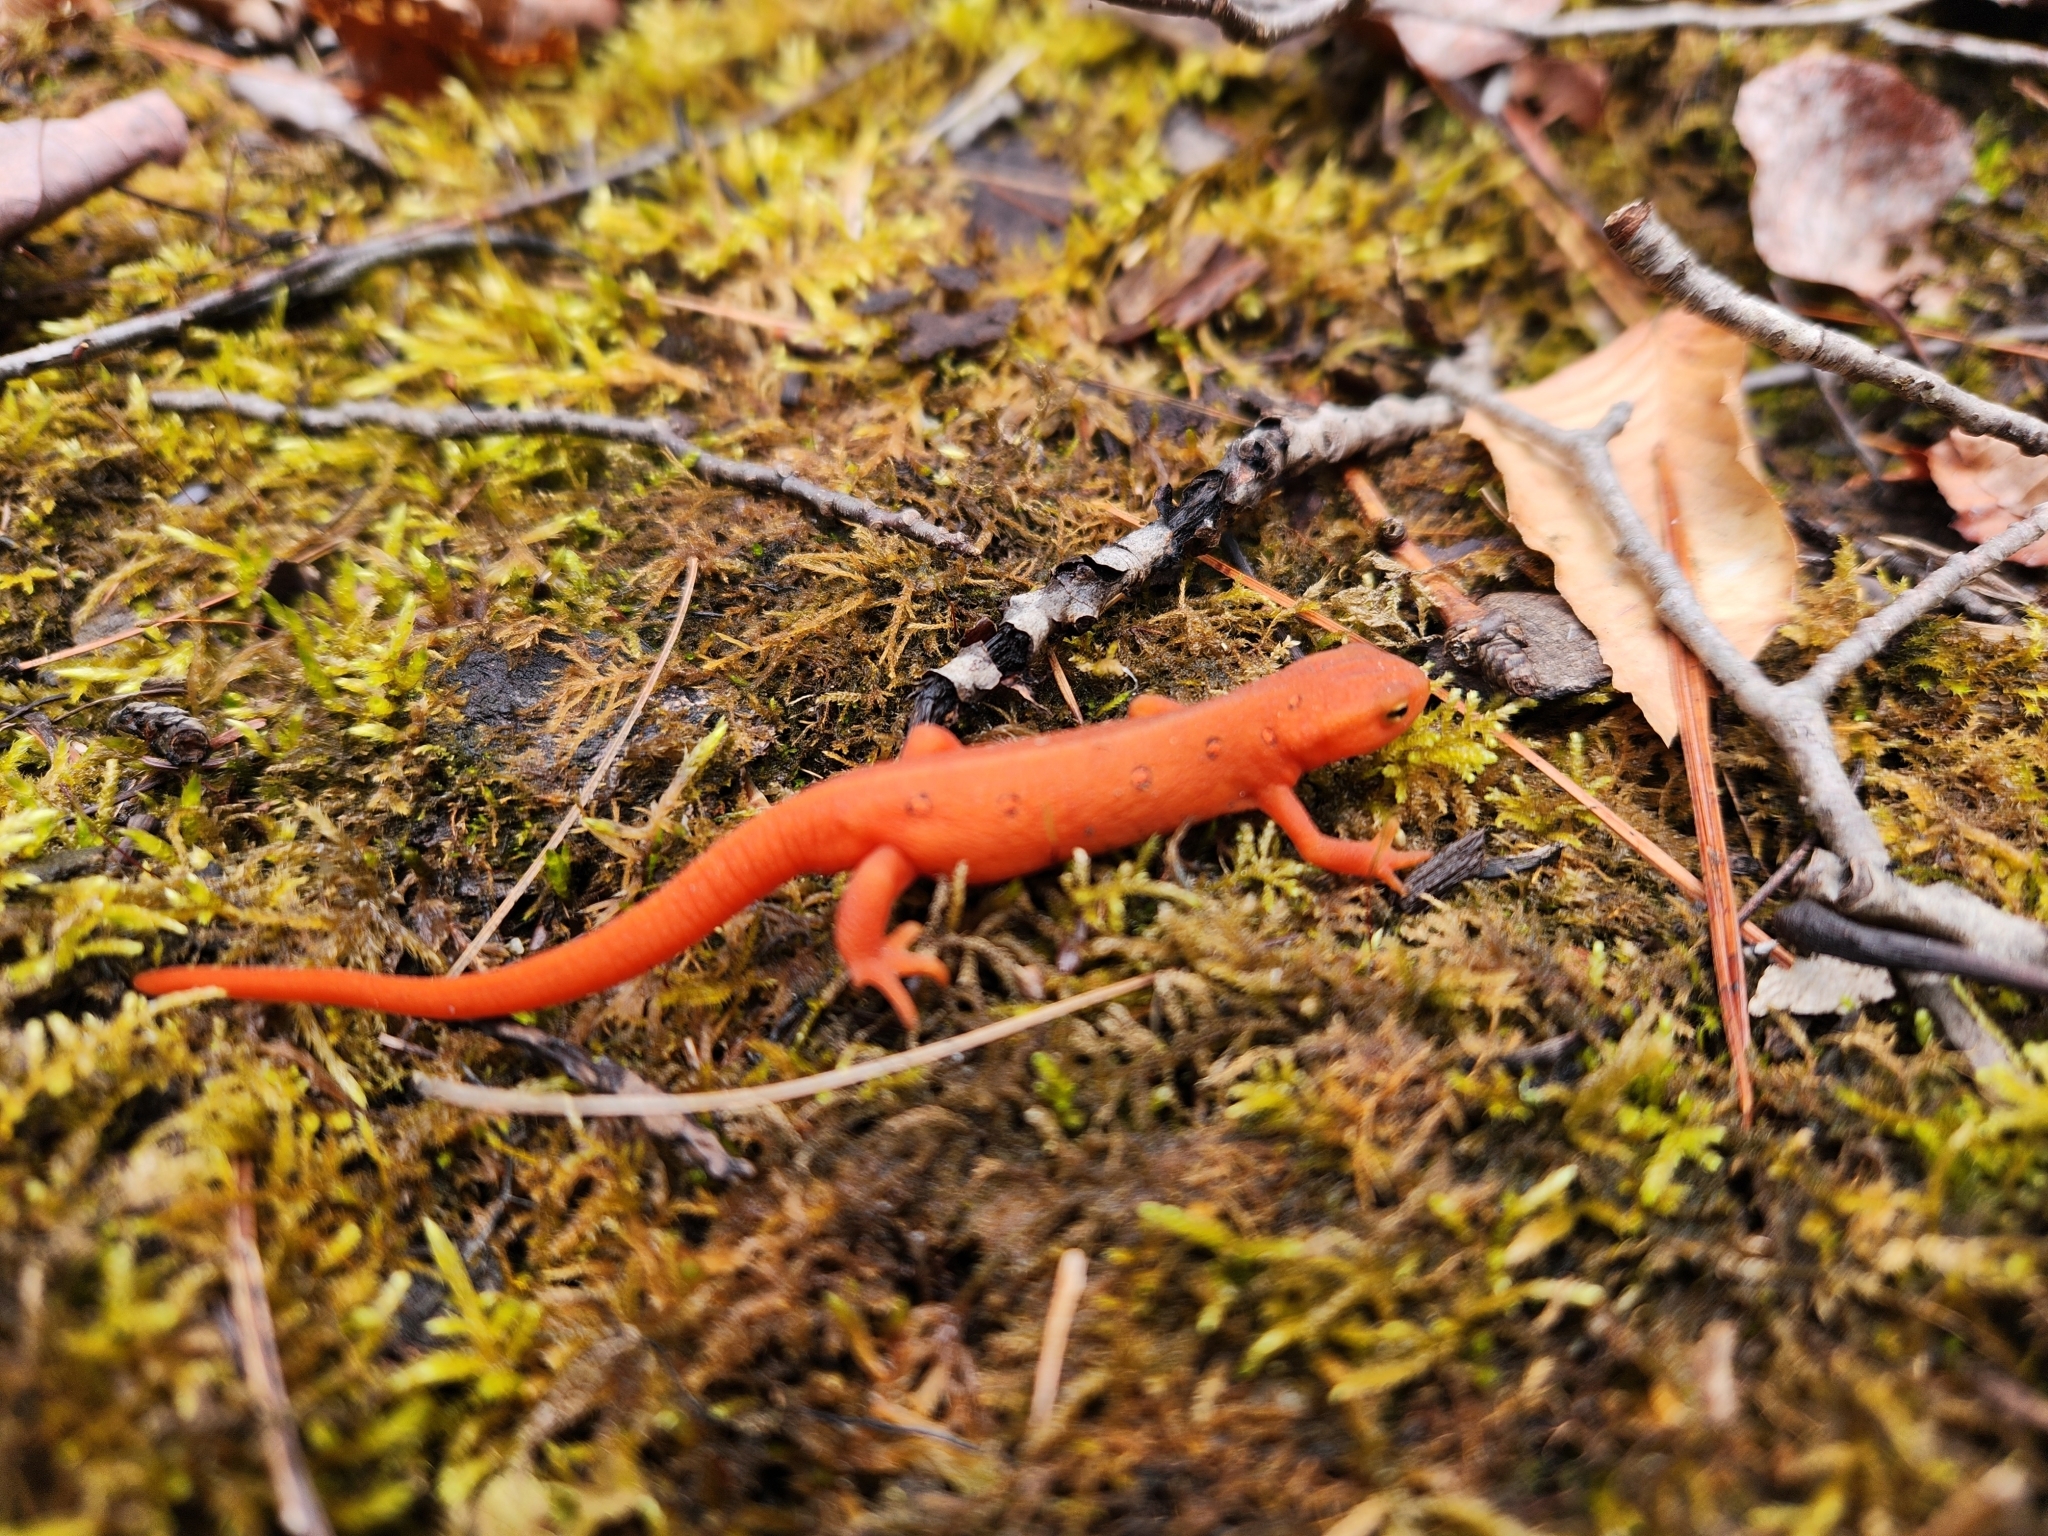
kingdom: Animalia
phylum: Chordata
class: Amphibia
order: Caudata
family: Salamandridae
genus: Notophthalmus
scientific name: Notophthalmus viridescens
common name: Eastern newt
